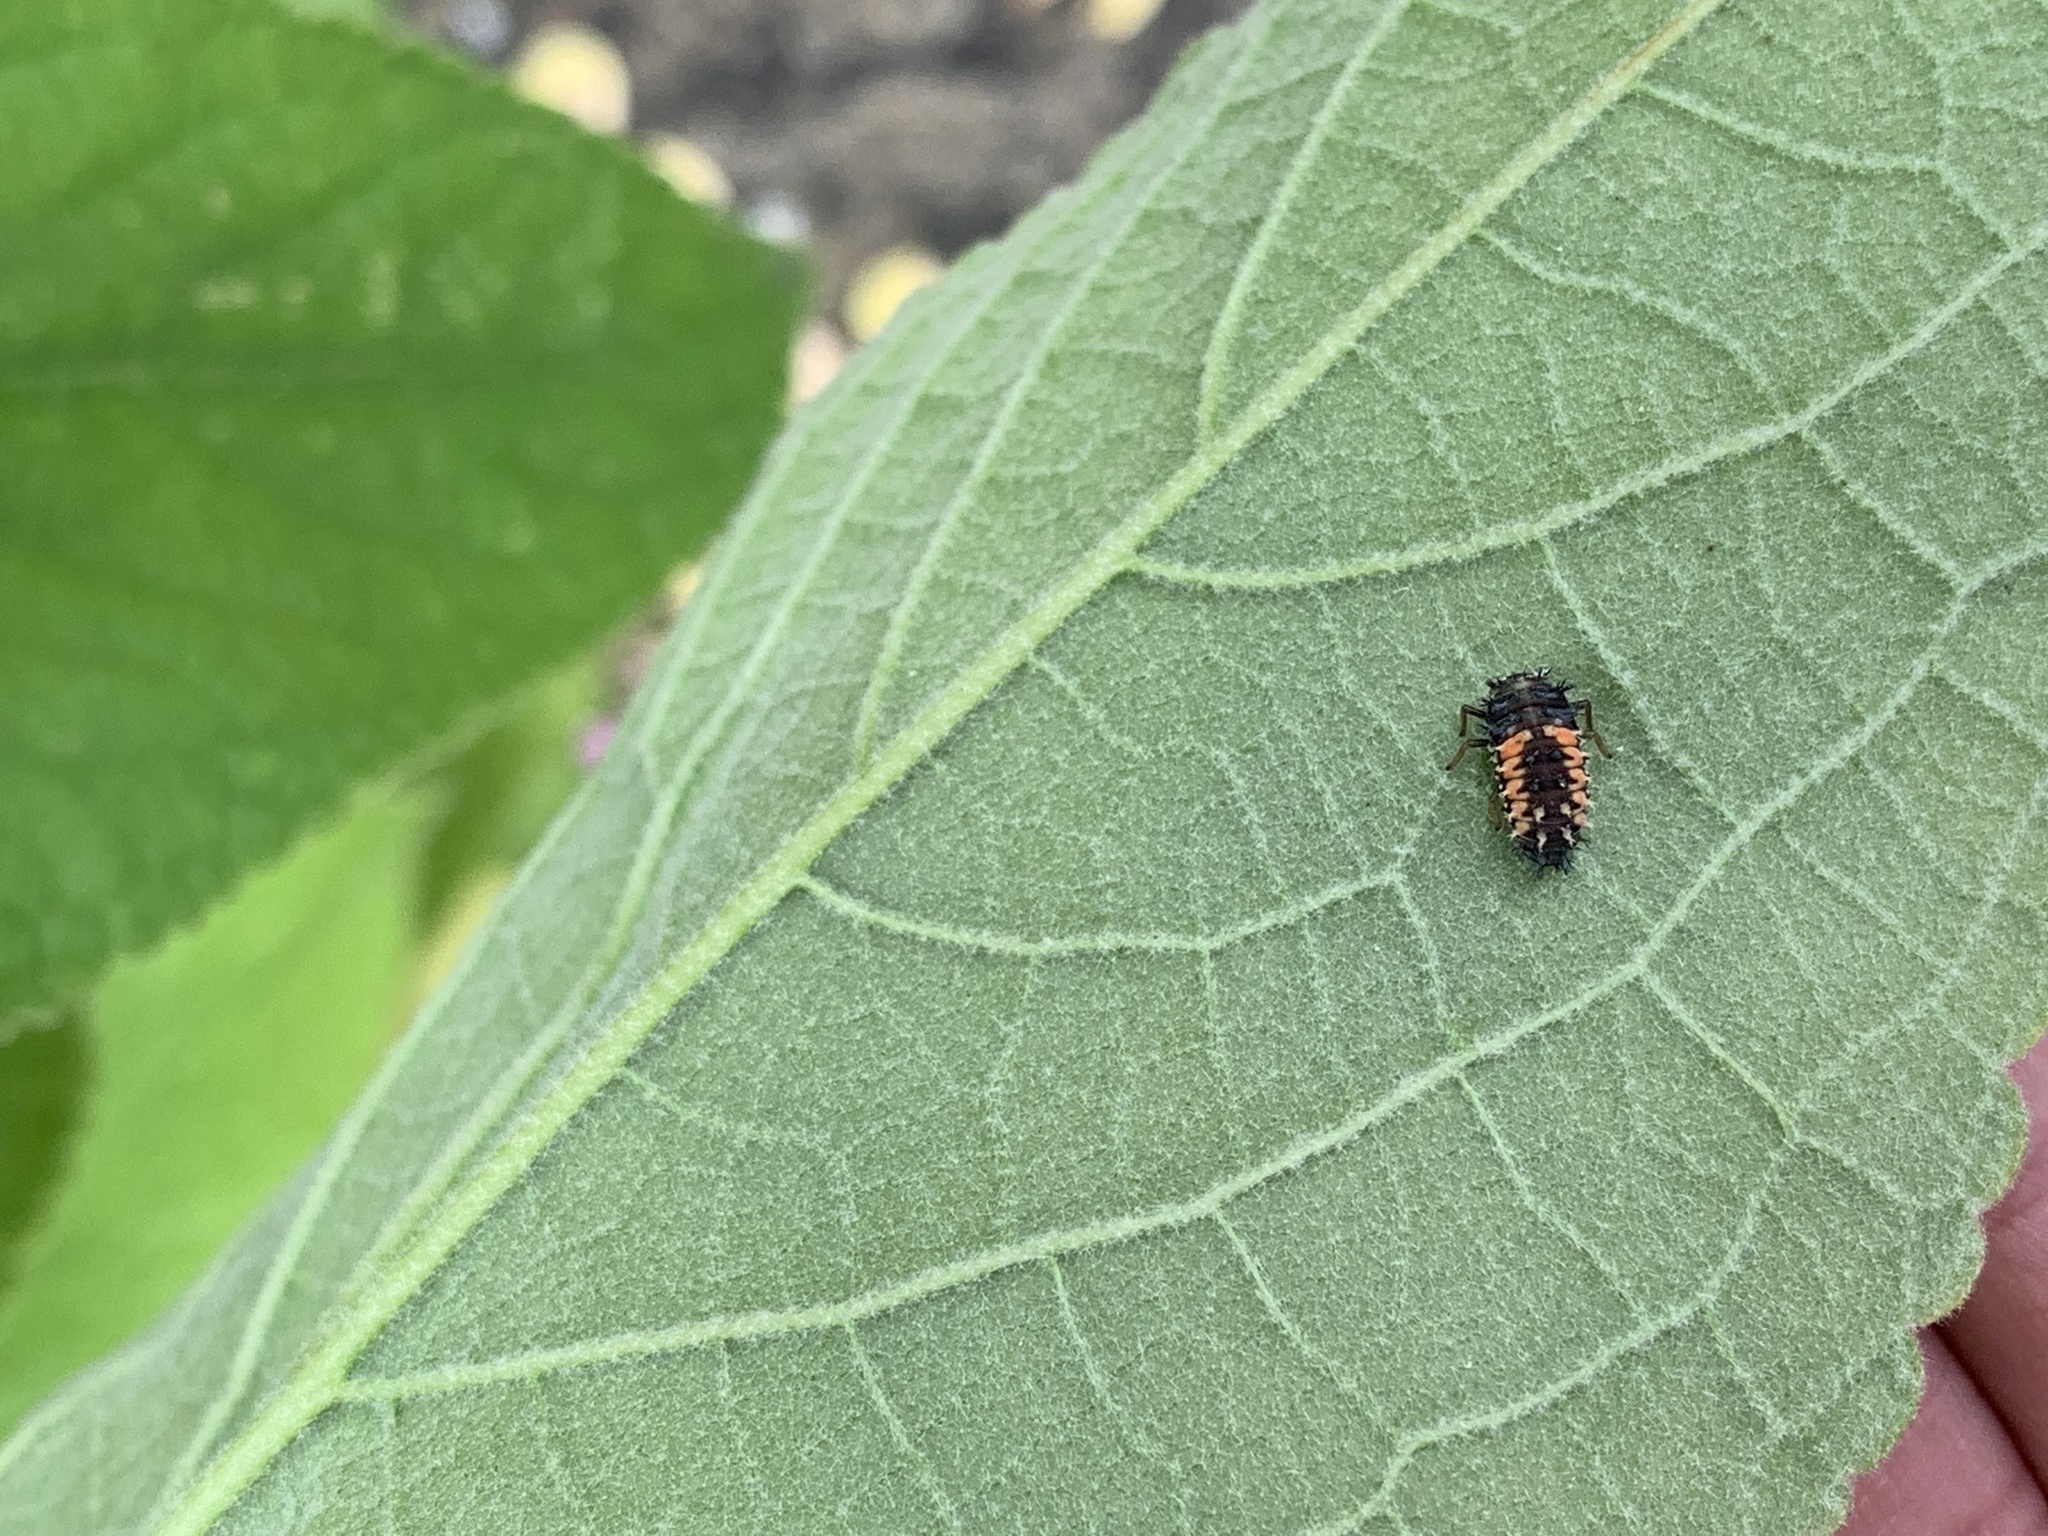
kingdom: Animalia
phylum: Arthropoda
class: Insecta
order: Coleoptera
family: Coccinellidae
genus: Harmonia
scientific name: Harmonia axyridis
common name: Harlequin ladybird
